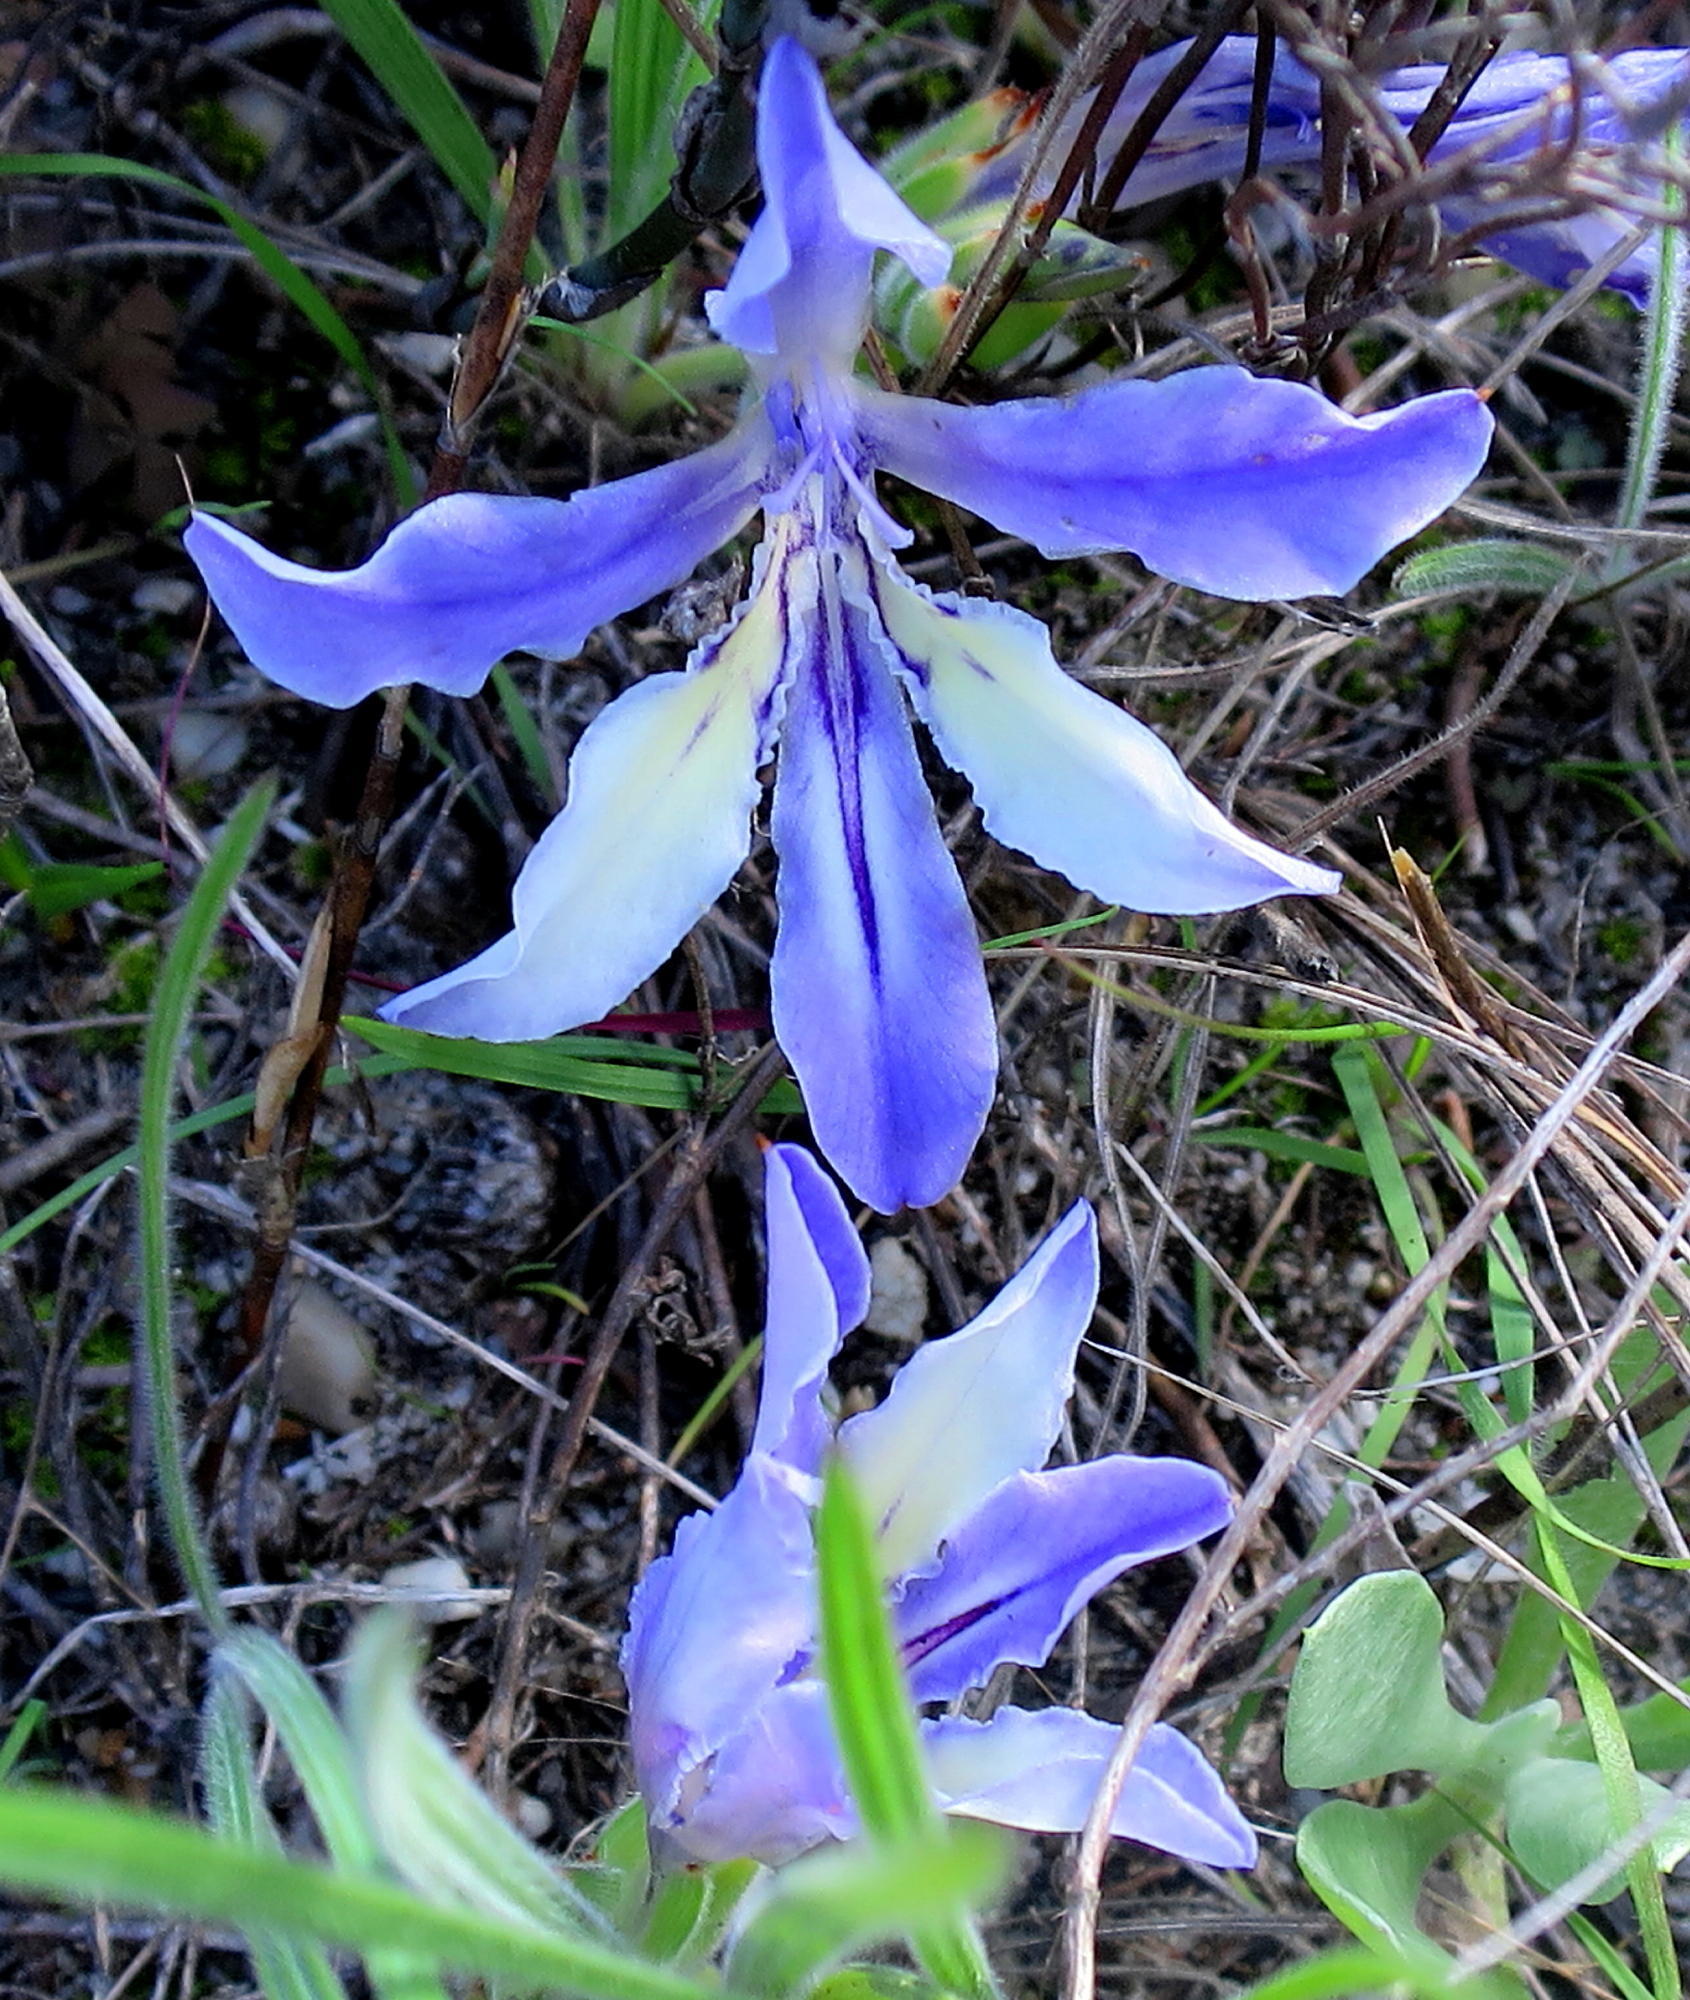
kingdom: Plantae
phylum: Tracheophyta
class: Liliopsida
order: Asparagales
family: Iridaceae
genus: Babiana
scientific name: Babiana ambigua
